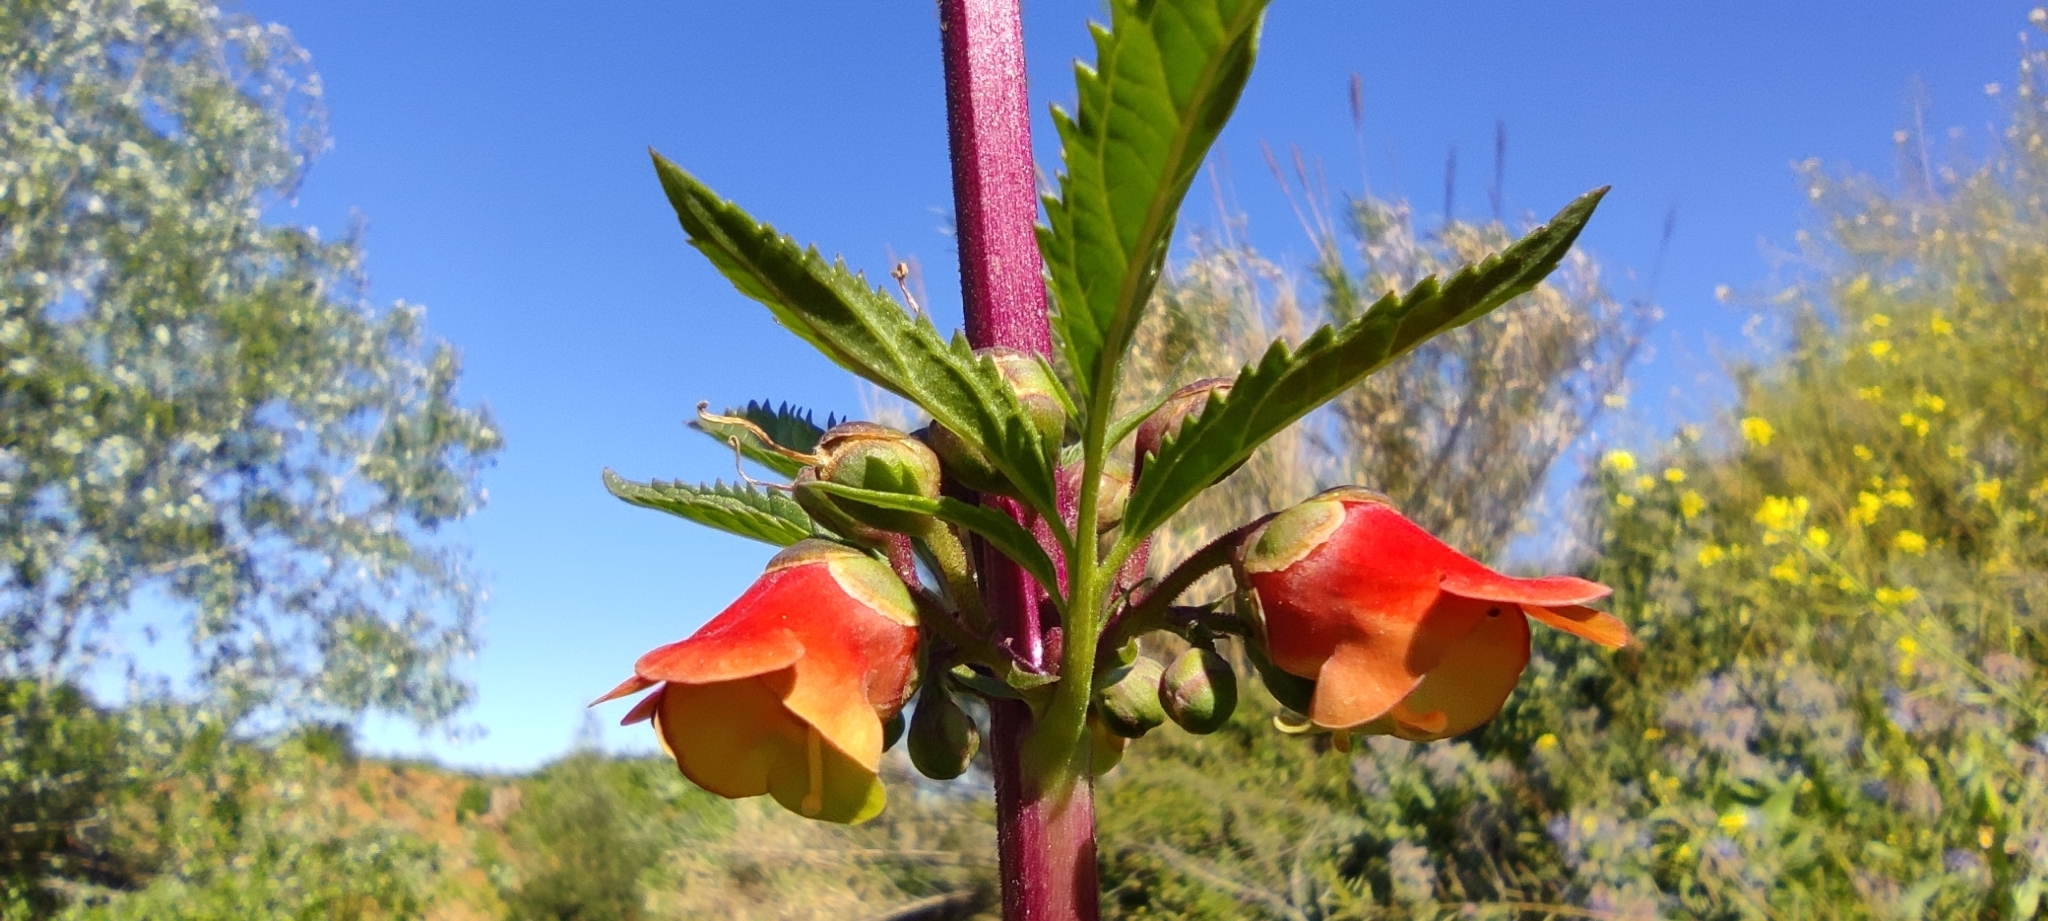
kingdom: Plantae
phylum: Tracheophyta
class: Magnoliopsida
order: Lamiales
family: Scrophulariaceae
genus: Scrophularia
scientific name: Scrophularia sambucifolia
